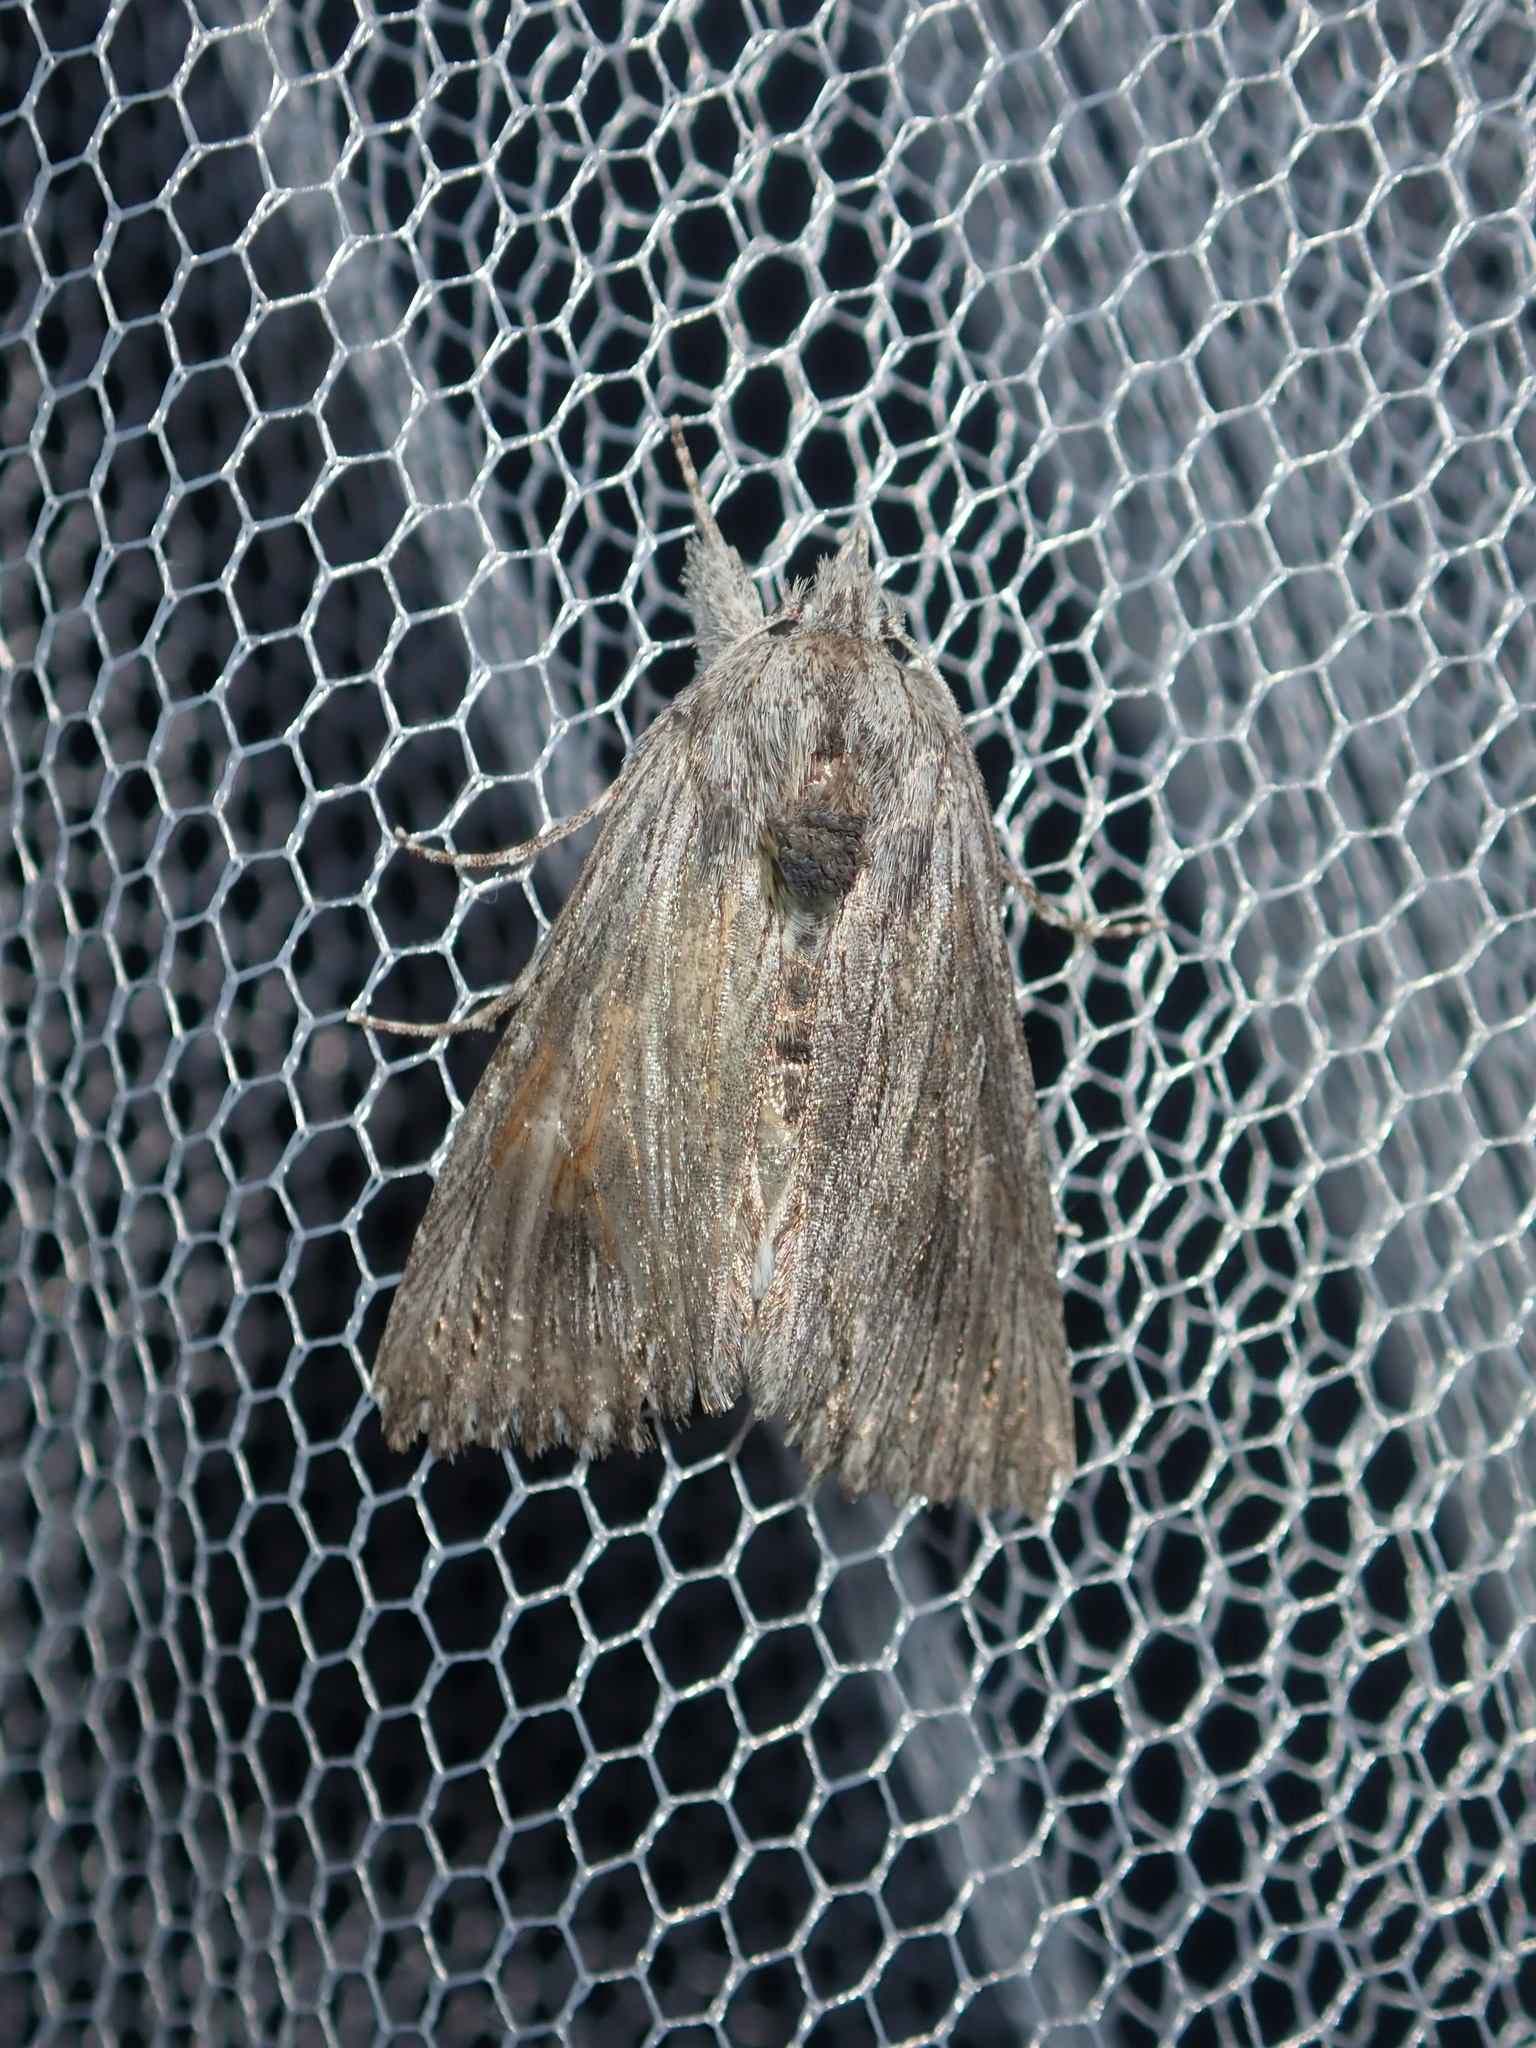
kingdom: Animalia
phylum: Arthropoda
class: Insecta
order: Lepidoptera
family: Noctuidae
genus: Buciara
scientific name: Buciara bipartita
